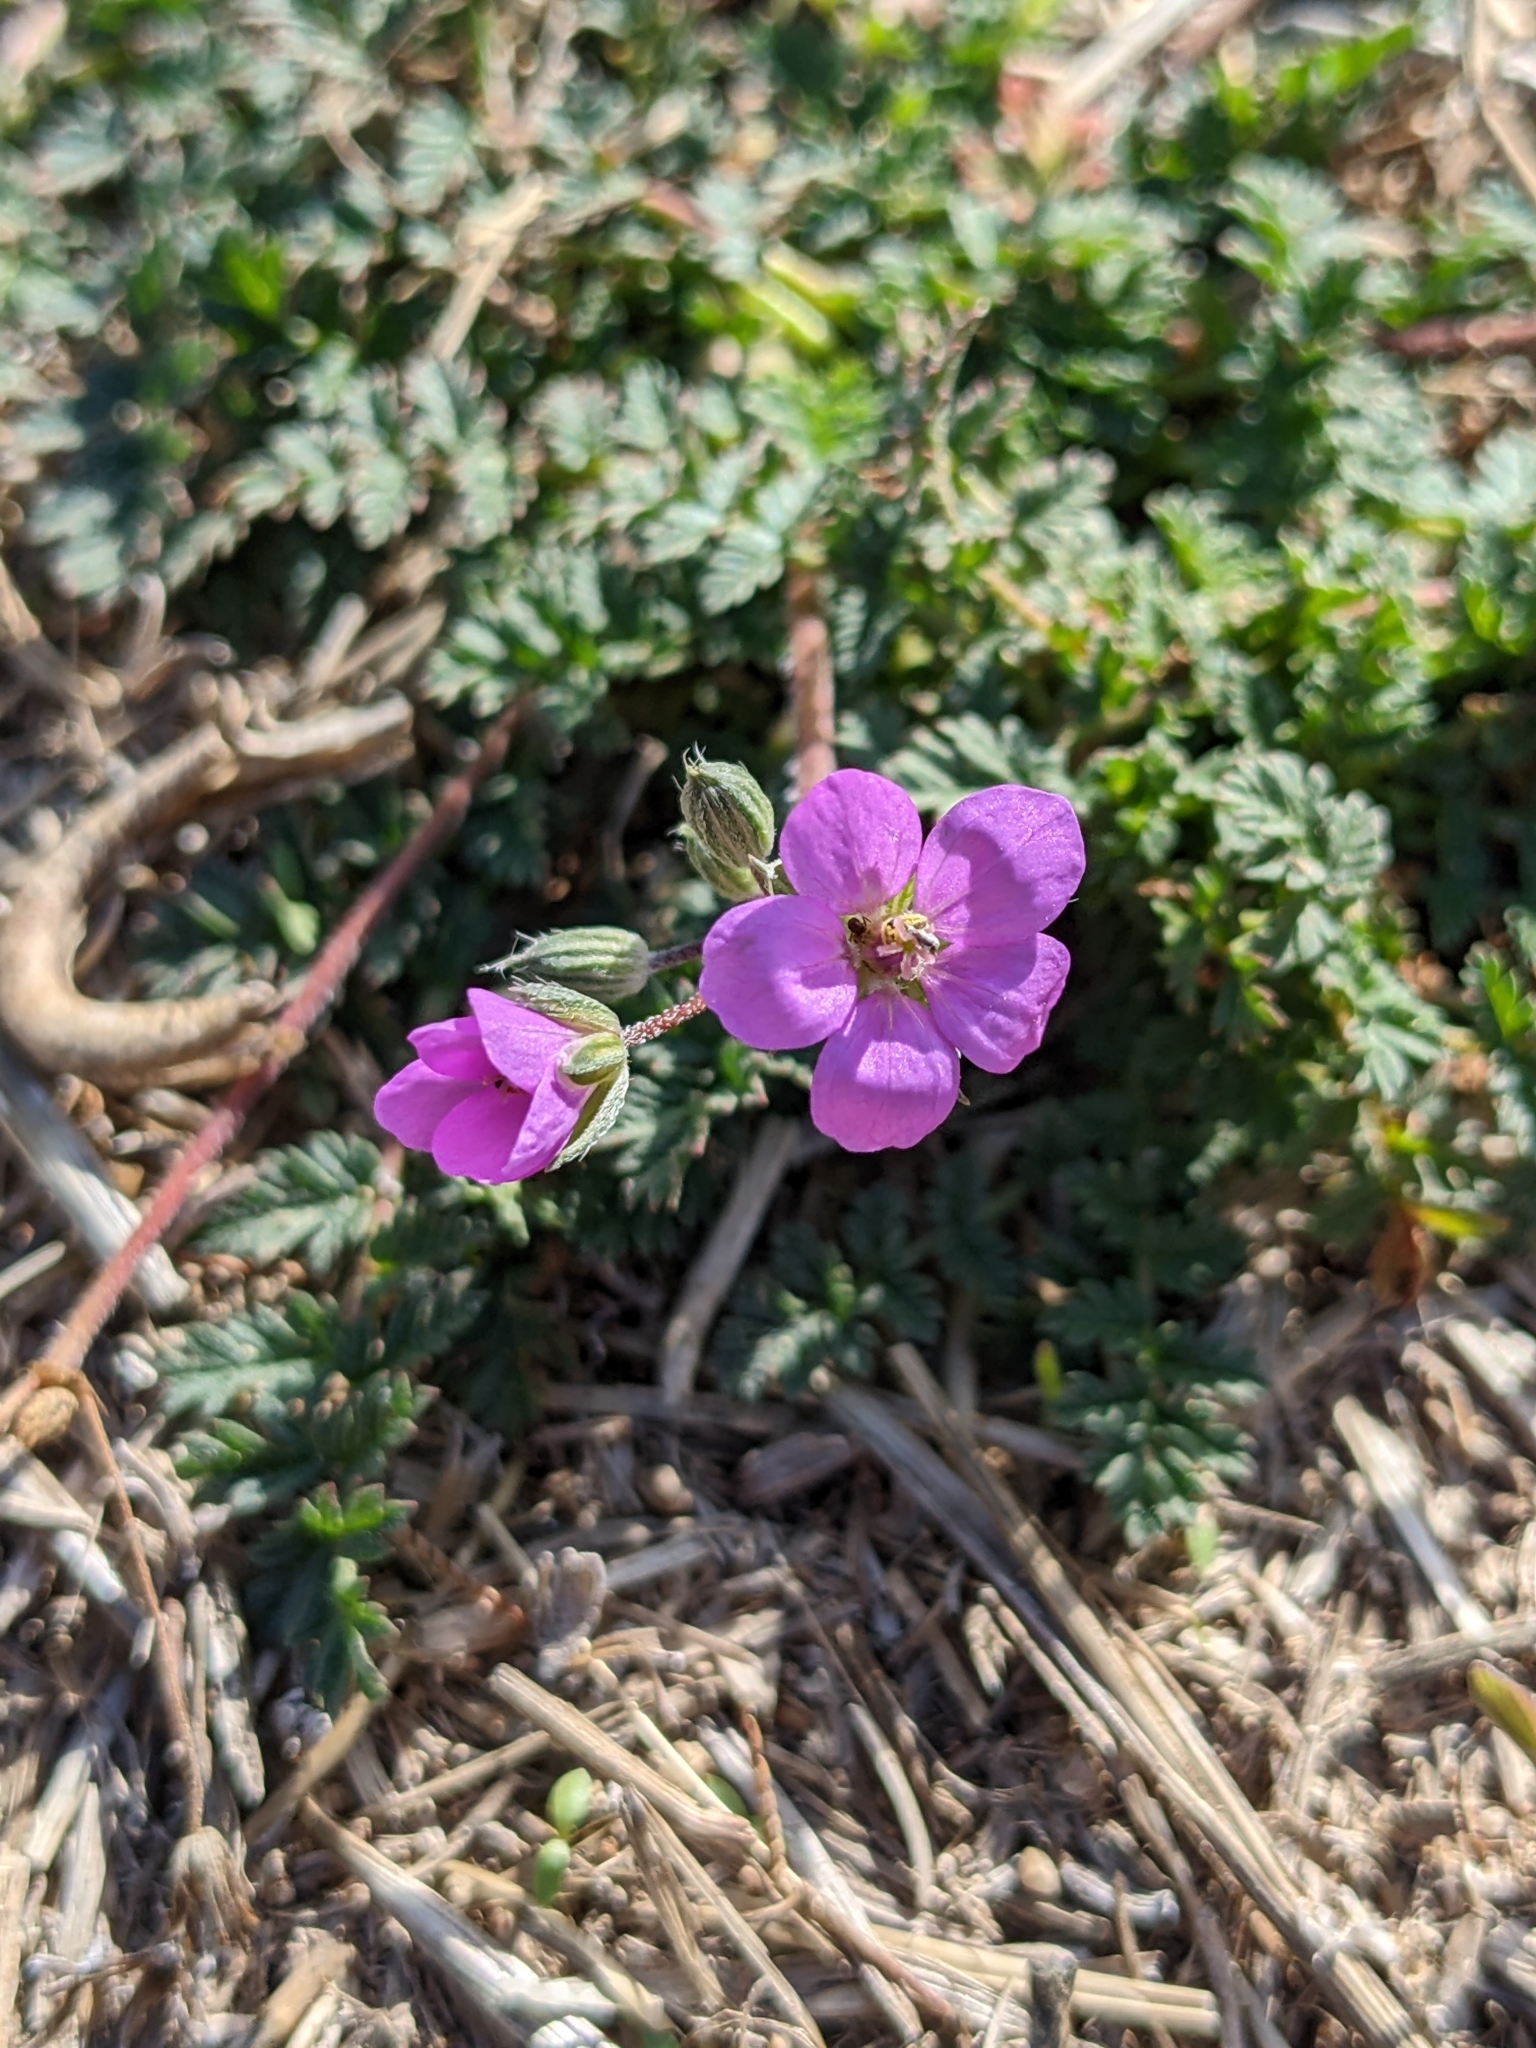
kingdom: Plantae
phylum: Tracheophyta
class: Magnoliopsida
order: Geraniales
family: Geraniaceae
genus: Erodium
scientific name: Erodium acaule
